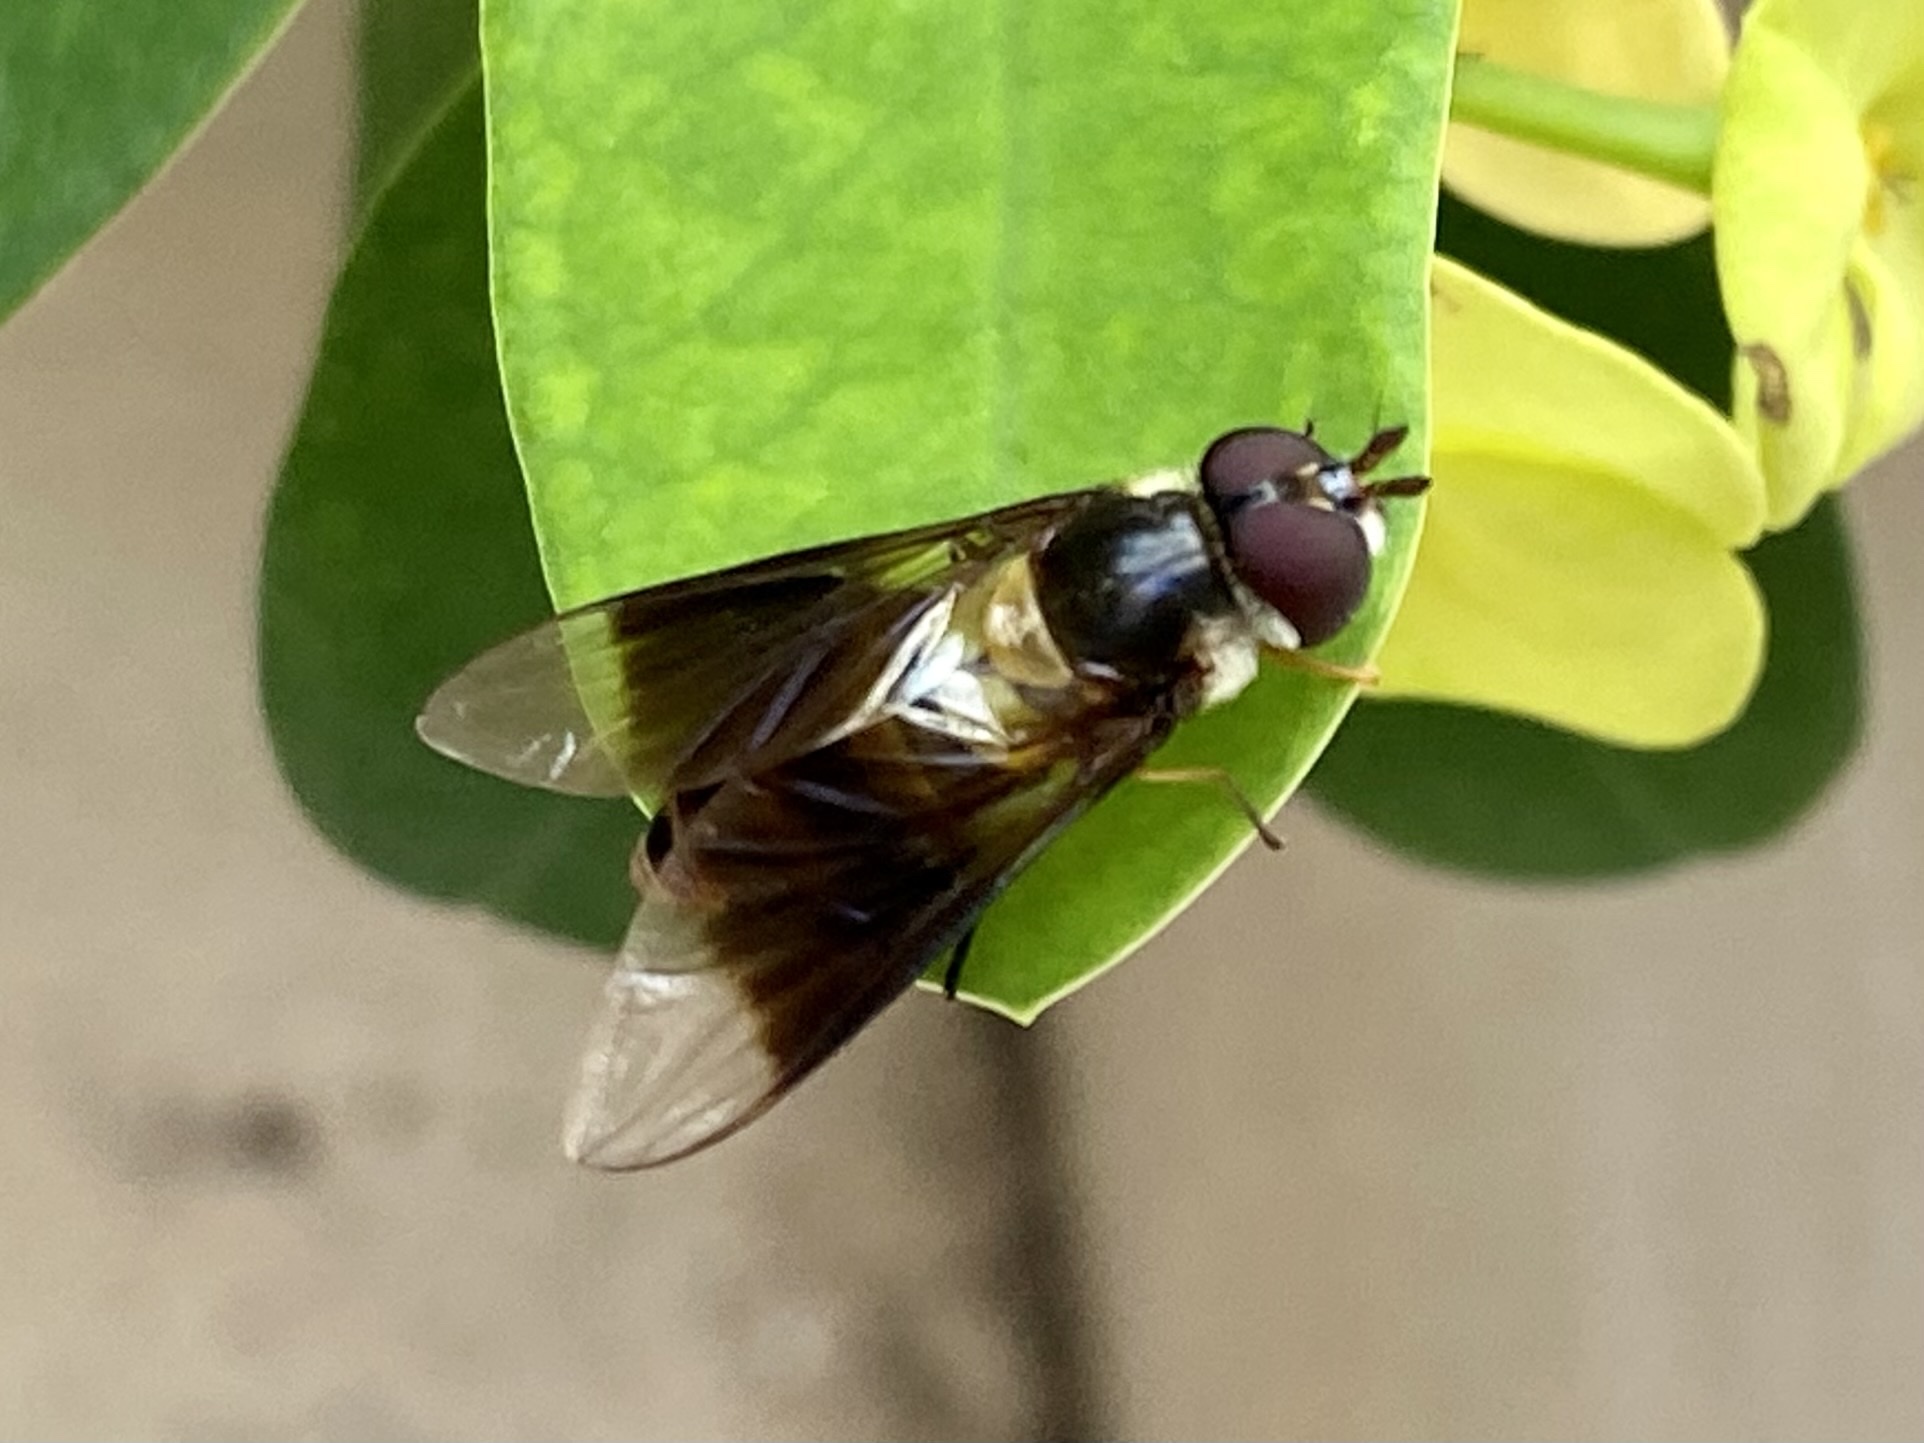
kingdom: Animalia
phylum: Arthropoda
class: Insecta
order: Diptera
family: Syrphidae
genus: Dideopsis
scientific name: Dideopsis aegrota
